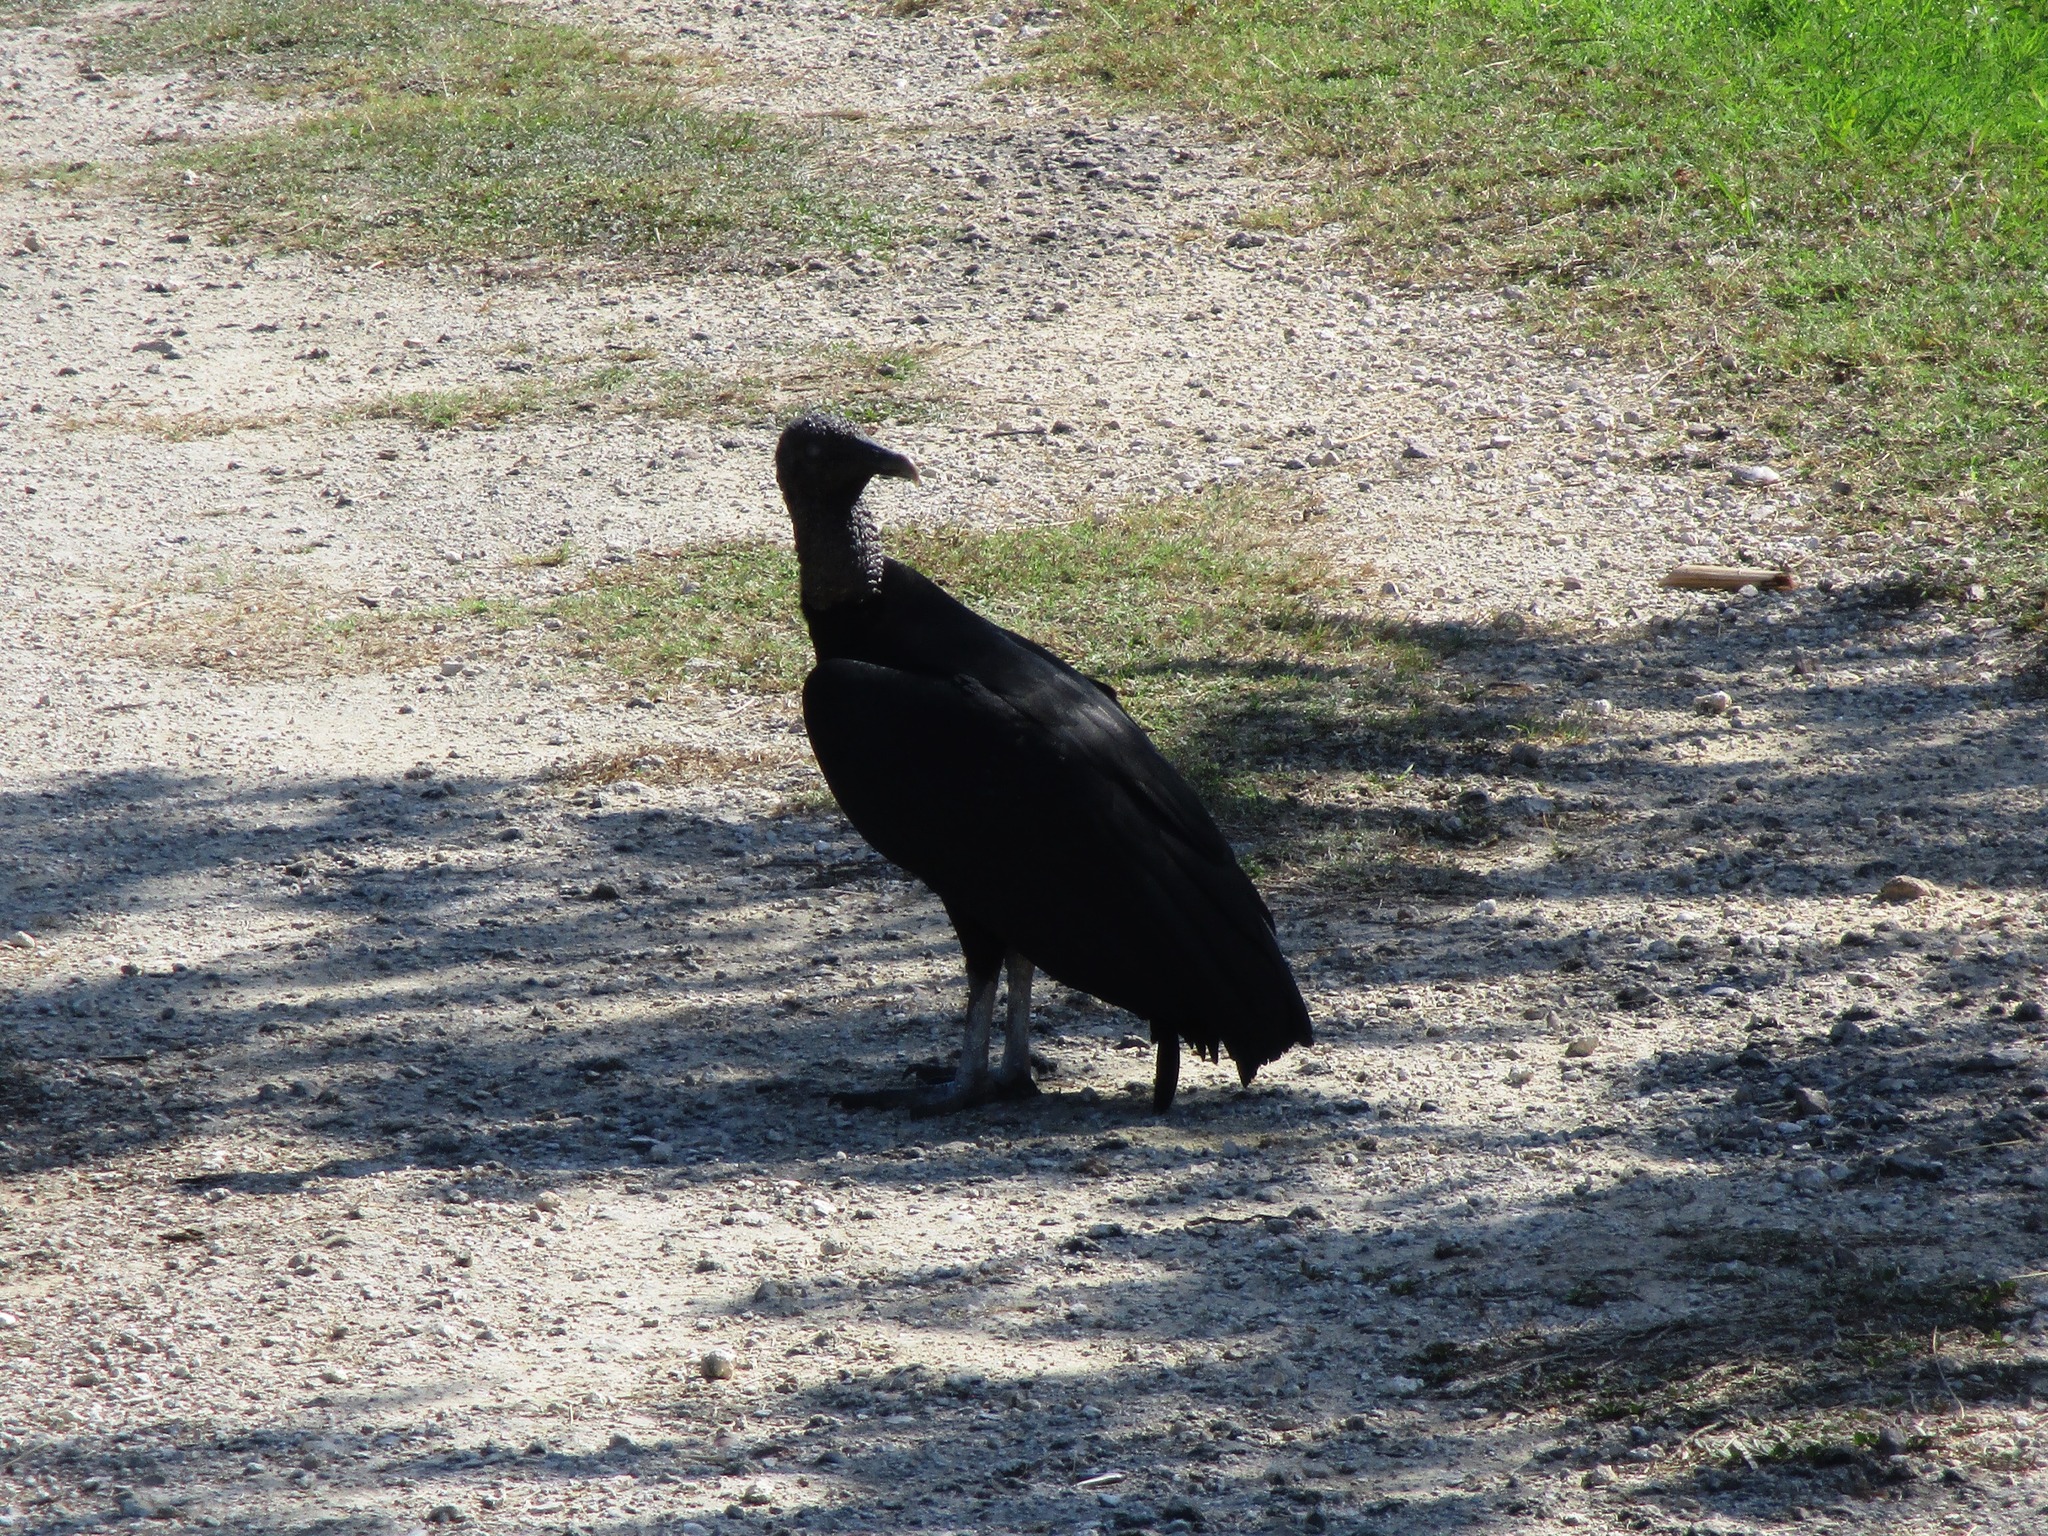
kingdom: Animalia
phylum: Chordata
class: Aves
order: Accipitriformes
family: Cathartidae
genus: Coragyps
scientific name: Coragyps atratus
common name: Black vulture
